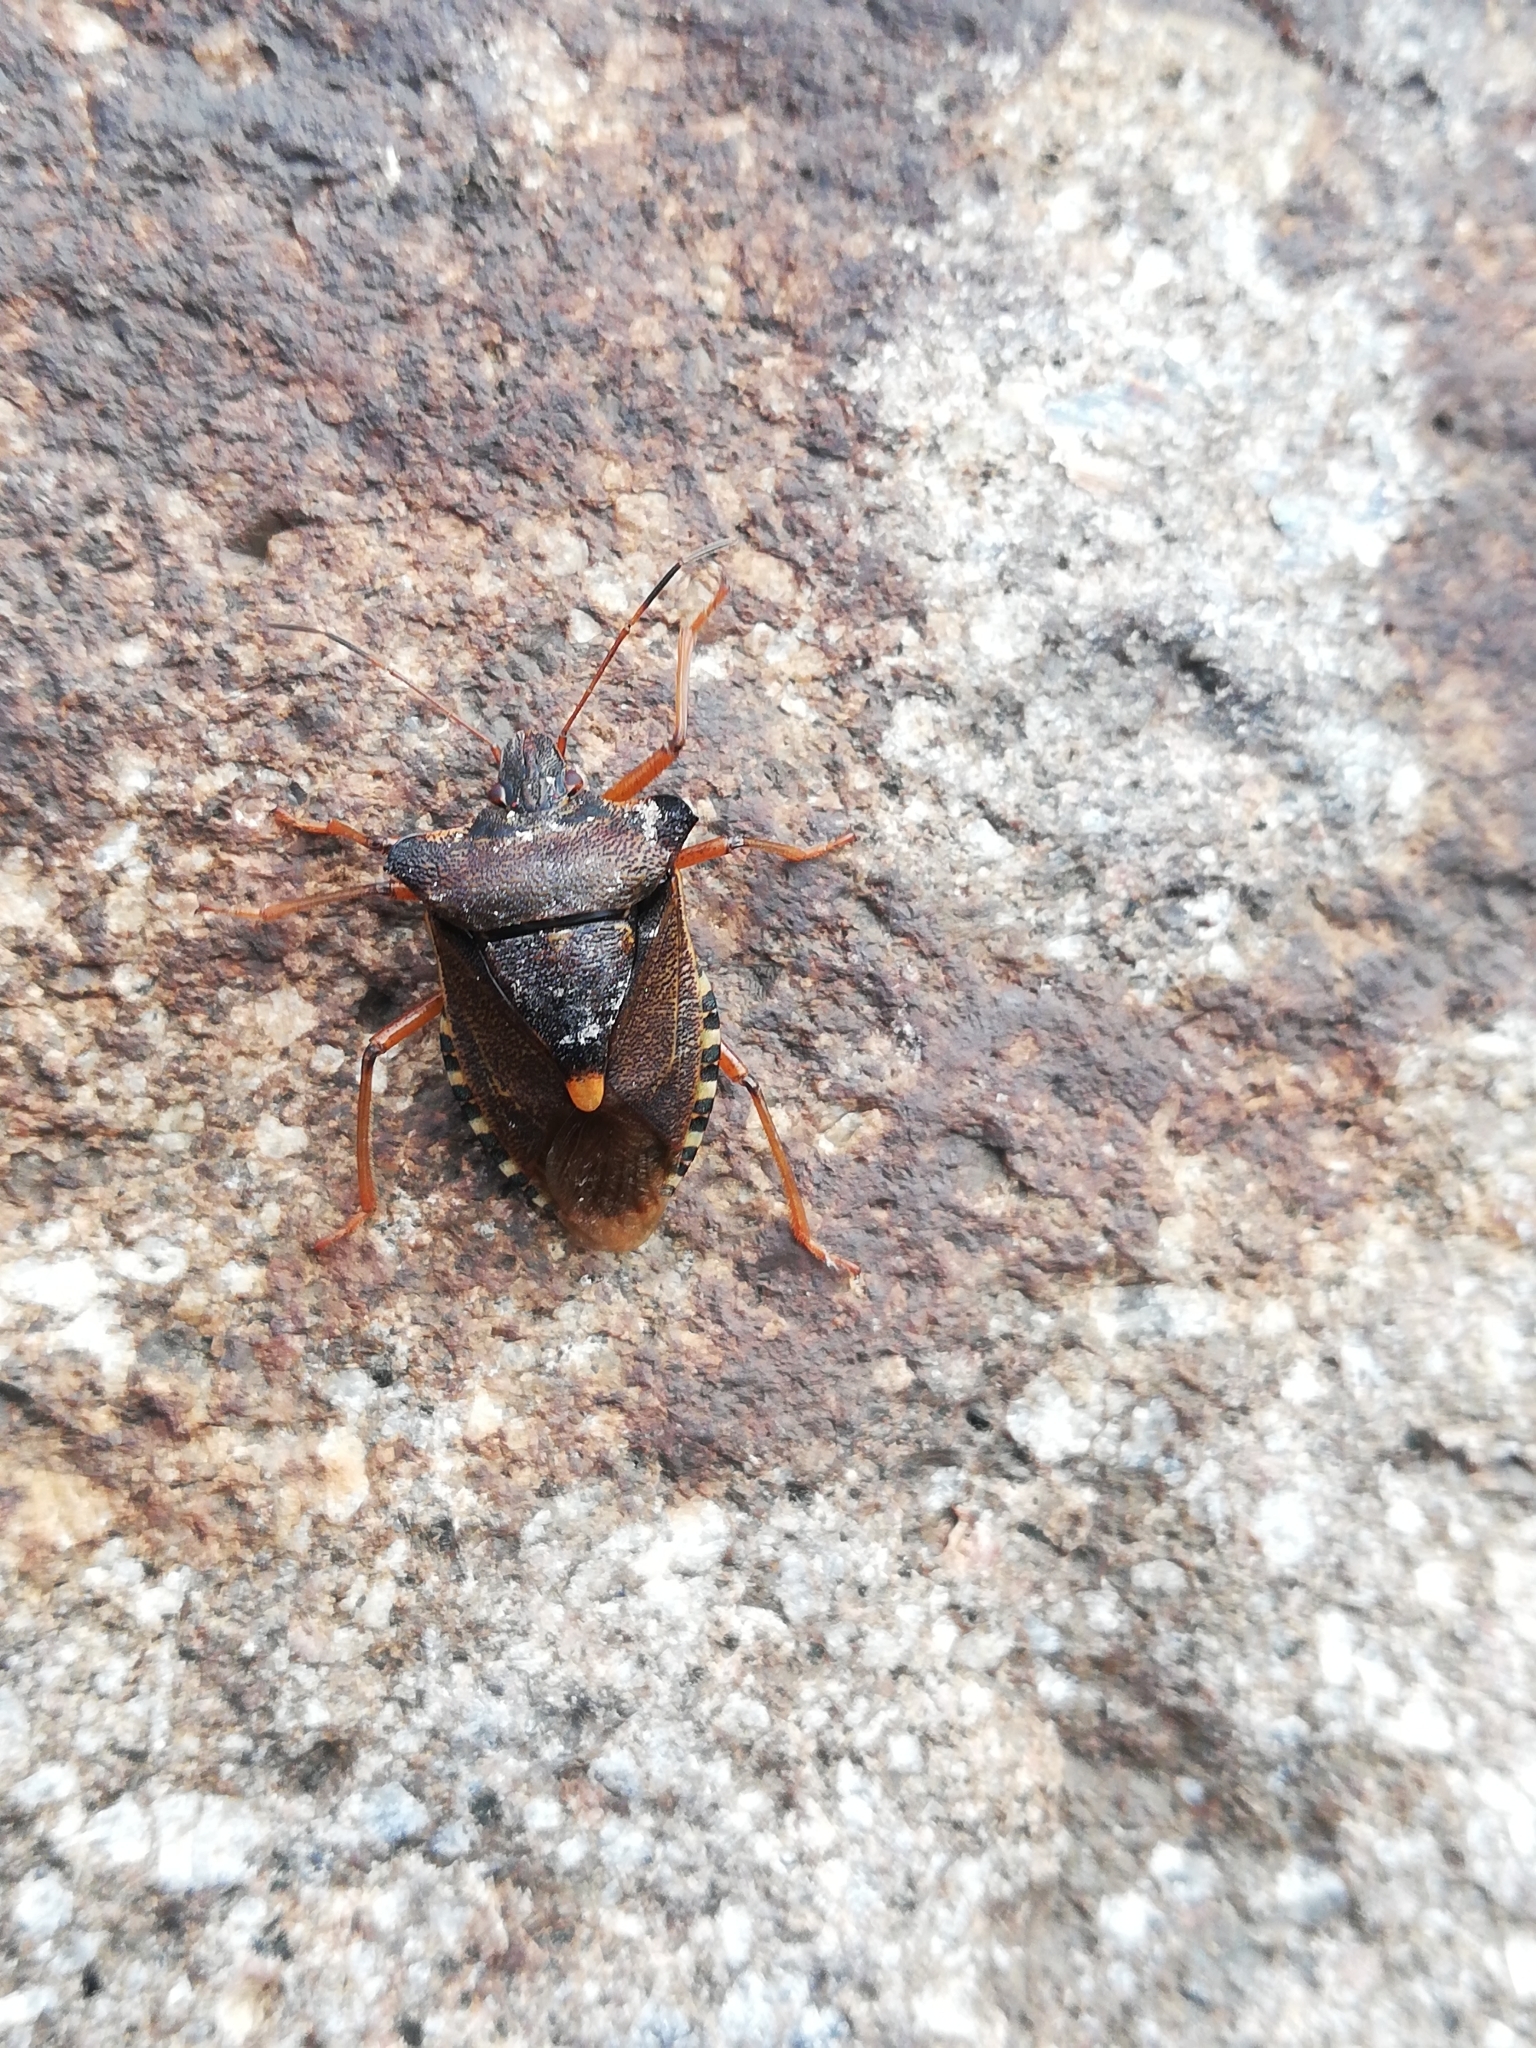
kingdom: Animalia
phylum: Arthropoda
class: Insecta
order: Hemiptera
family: Pentatomidae
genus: Pentatoma
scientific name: Pentatoma rufipes
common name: Forest bug
